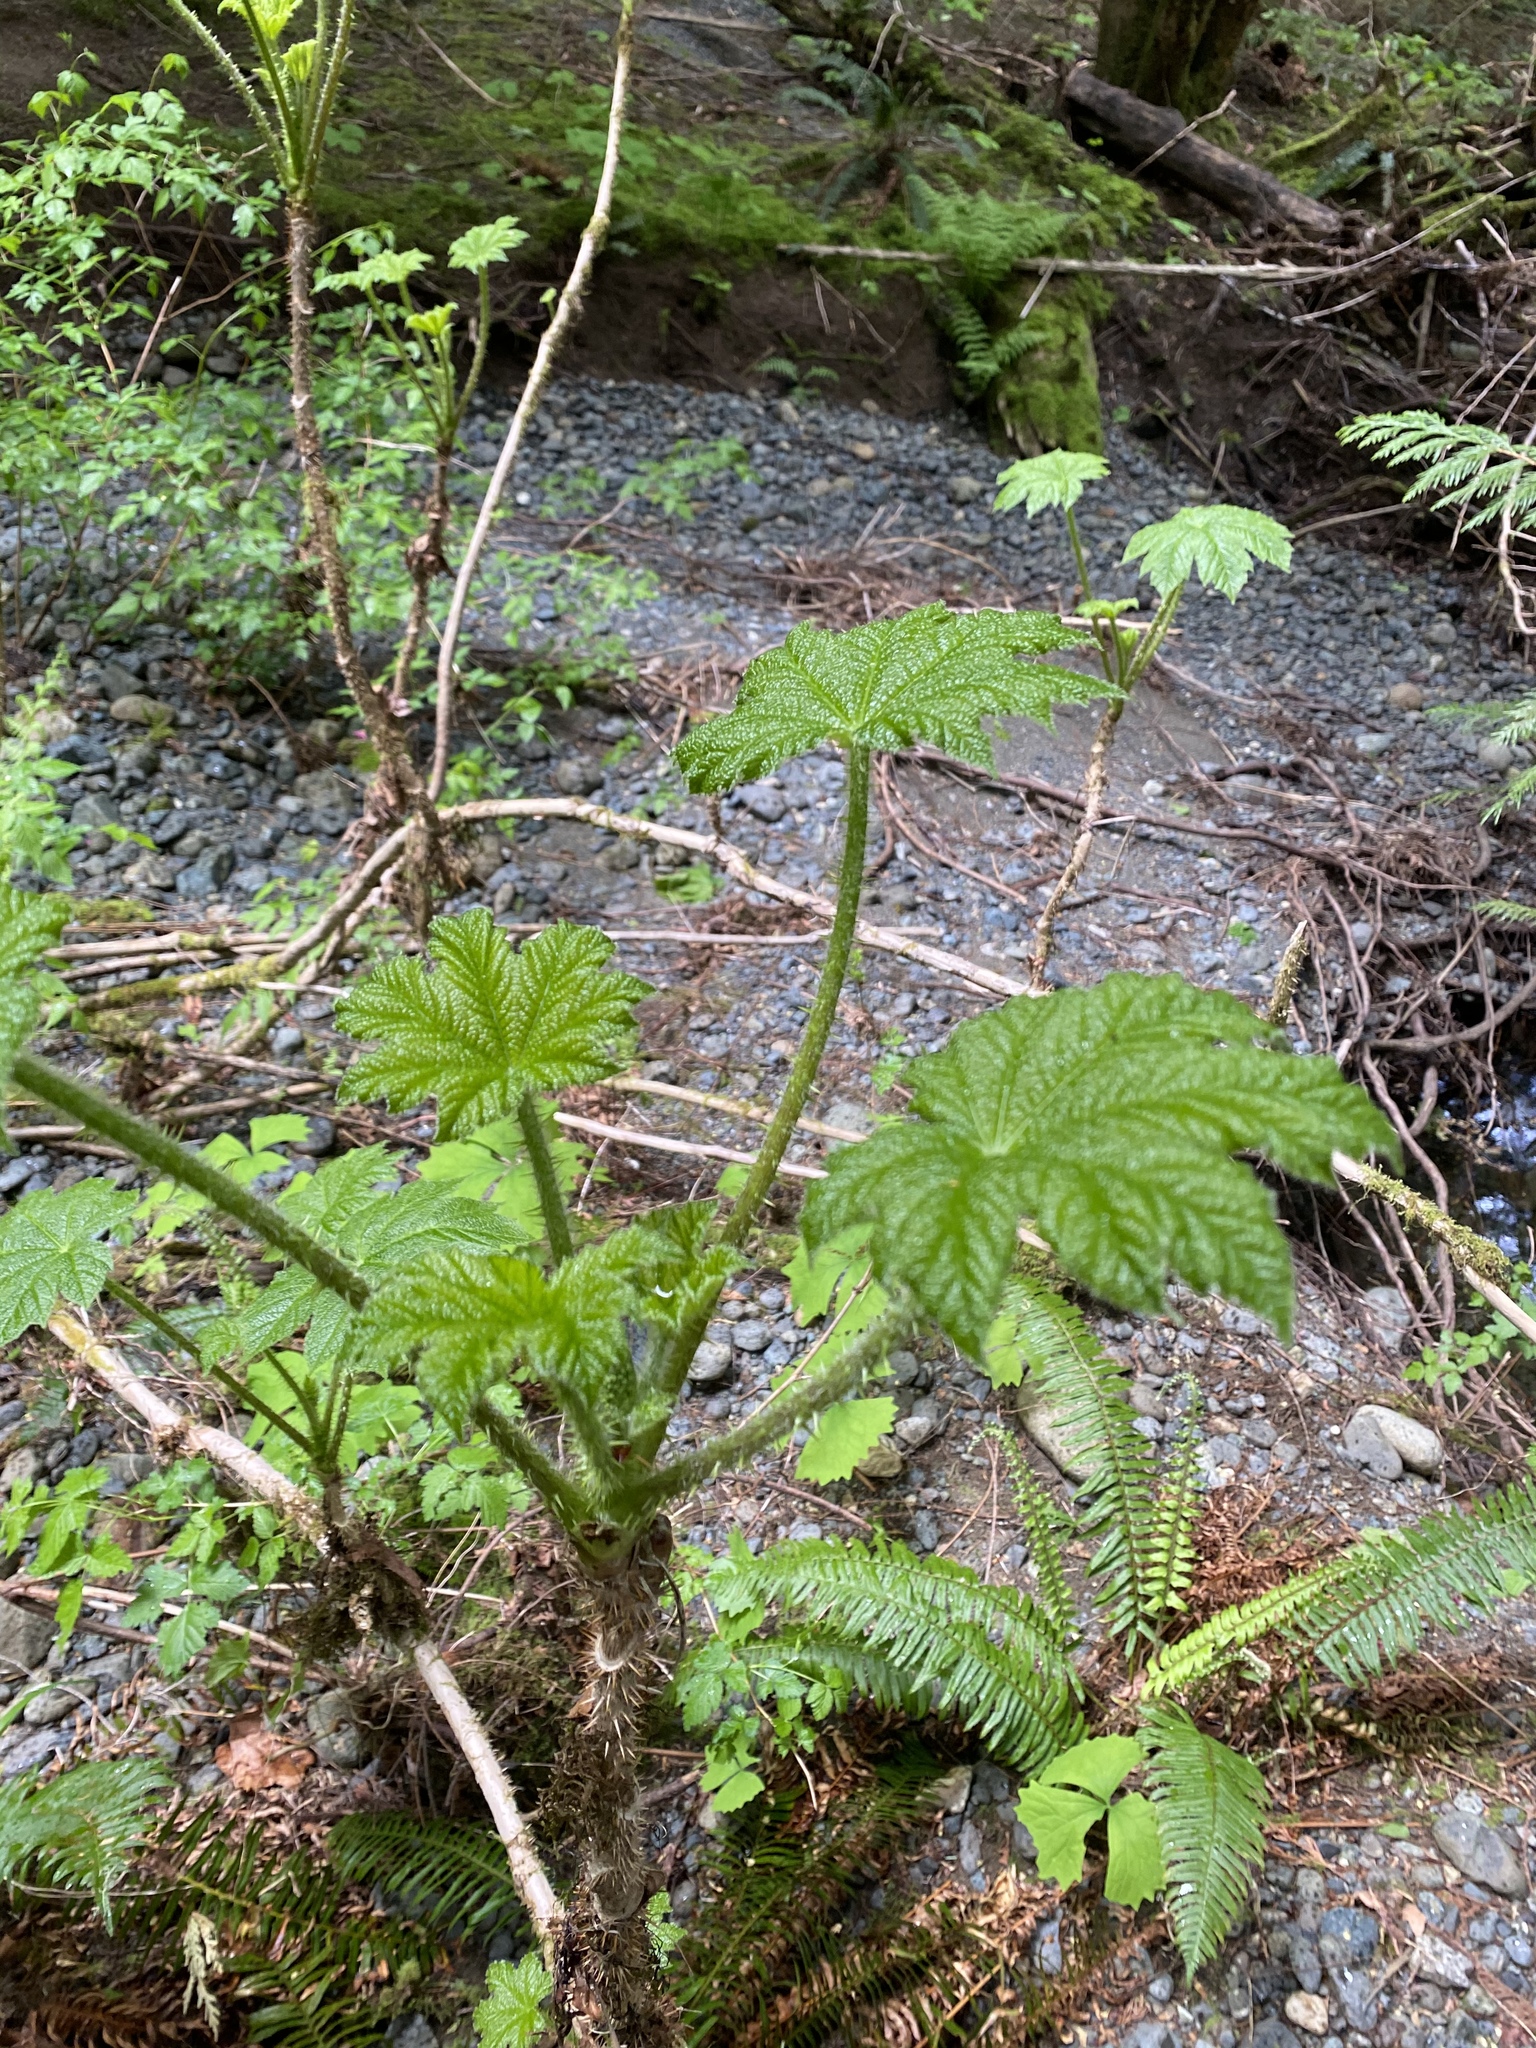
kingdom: Plantae
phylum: Tracheophyta
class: Magnoliopsida
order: Apiales
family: Araliaceae
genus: Oplopanax
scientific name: Oplopanax horridus
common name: Devil's walking-stick
